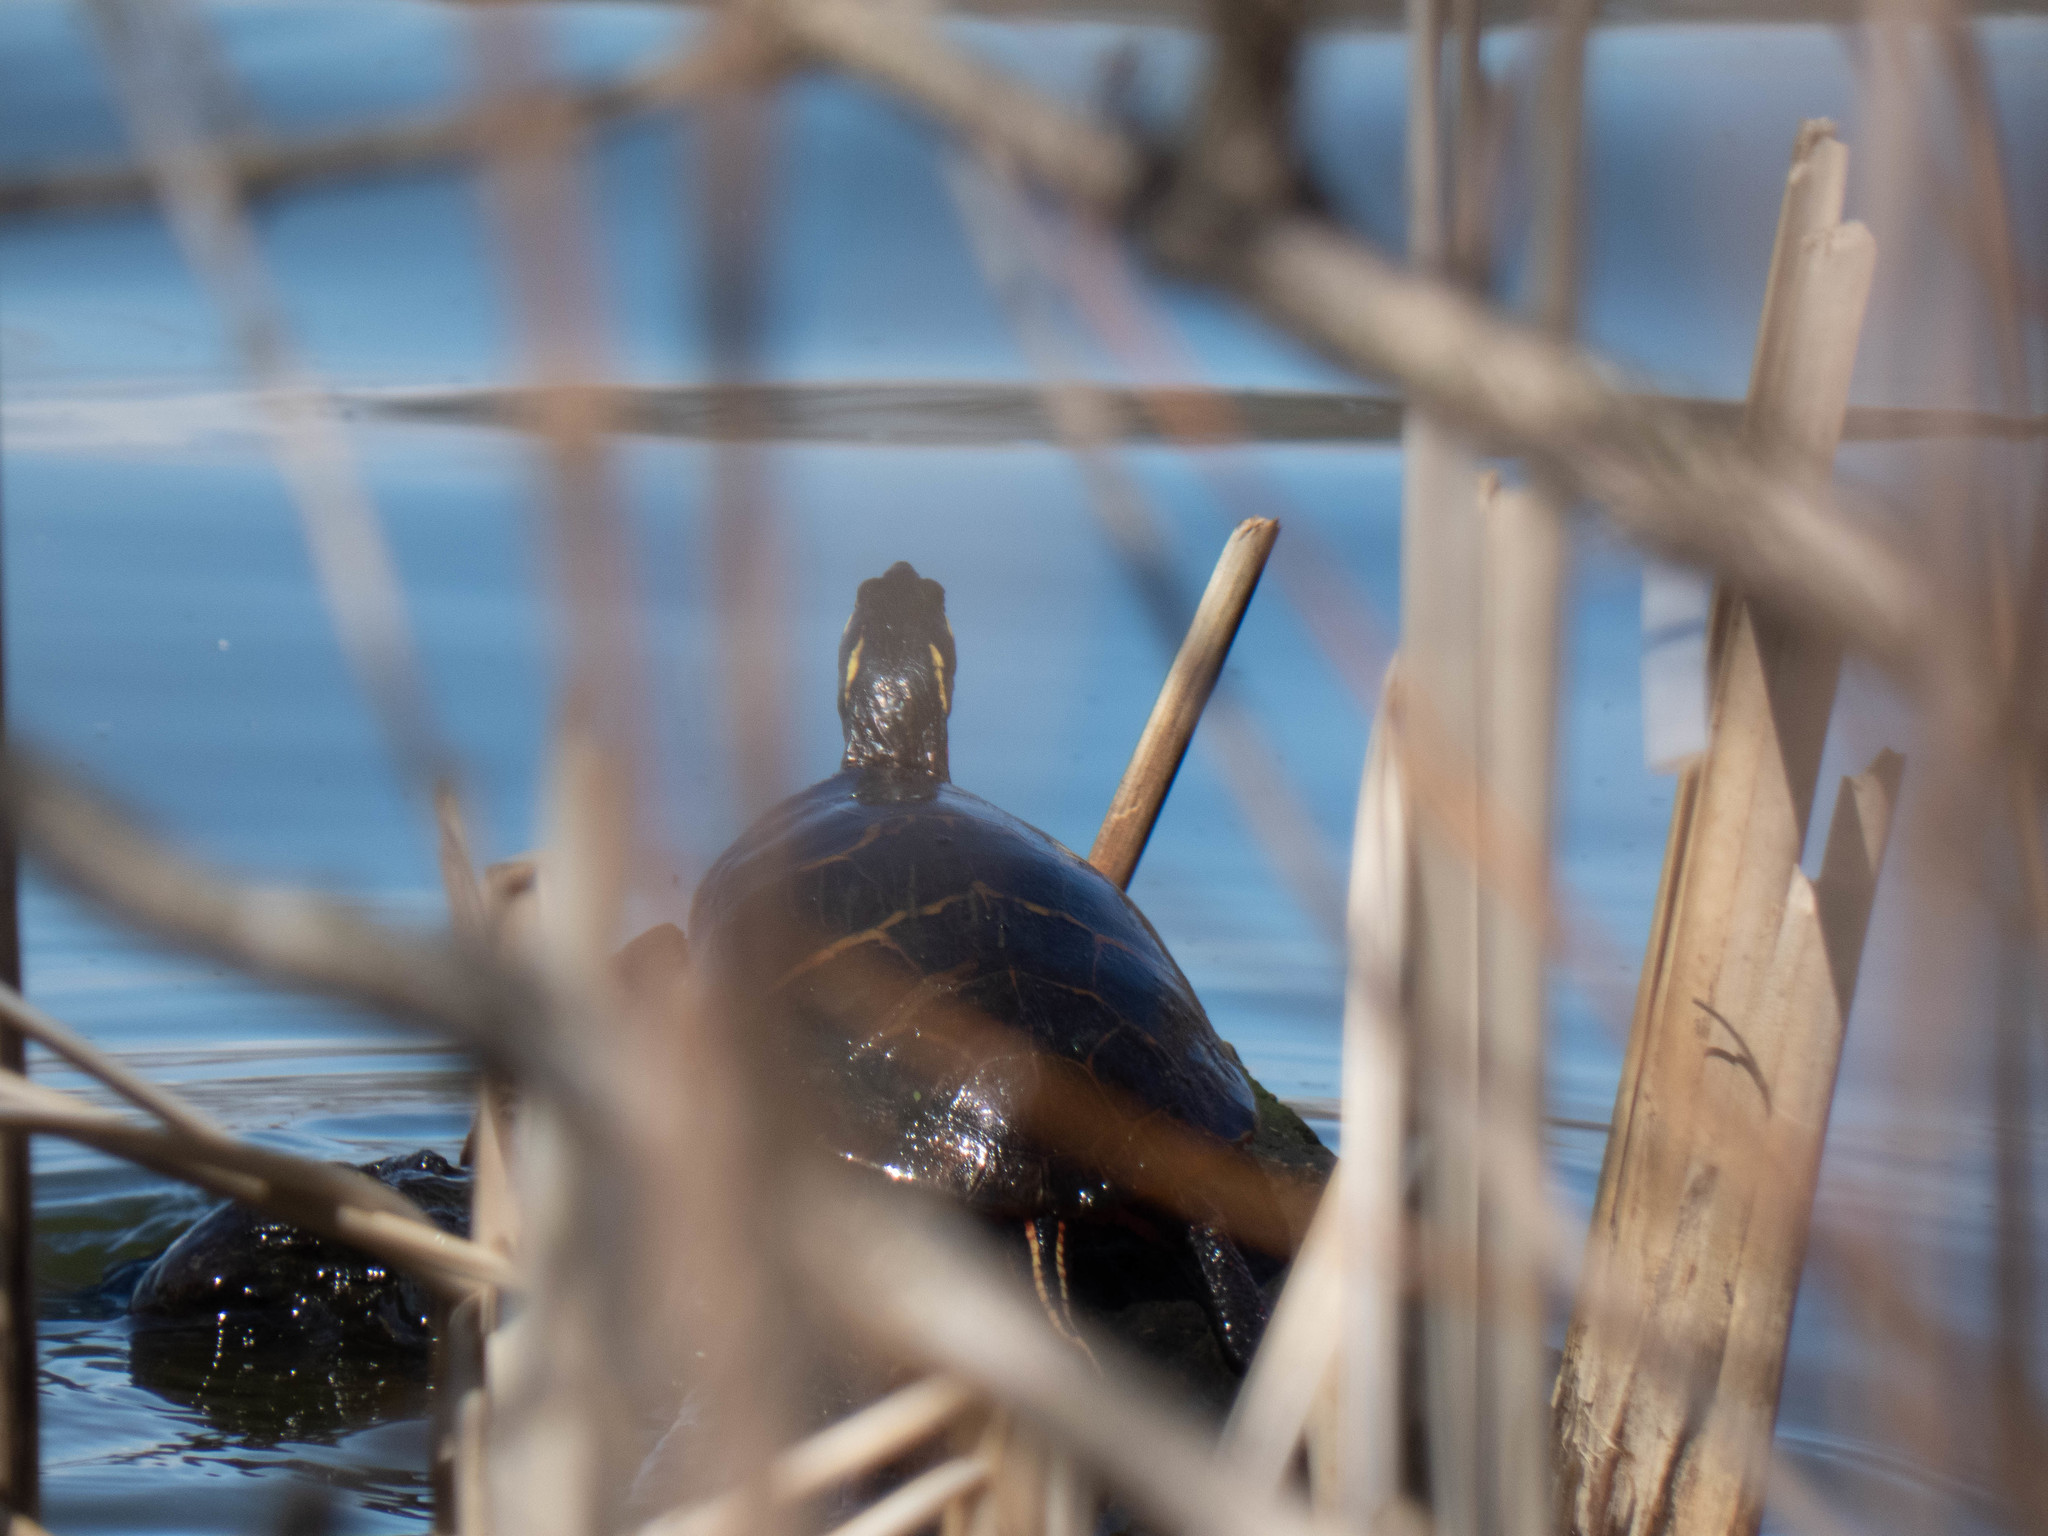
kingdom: Animalia
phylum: Chordata
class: Testudines
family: Emydidae
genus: Chrysemys
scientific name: Chrysemys picta
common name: Painted turtle
